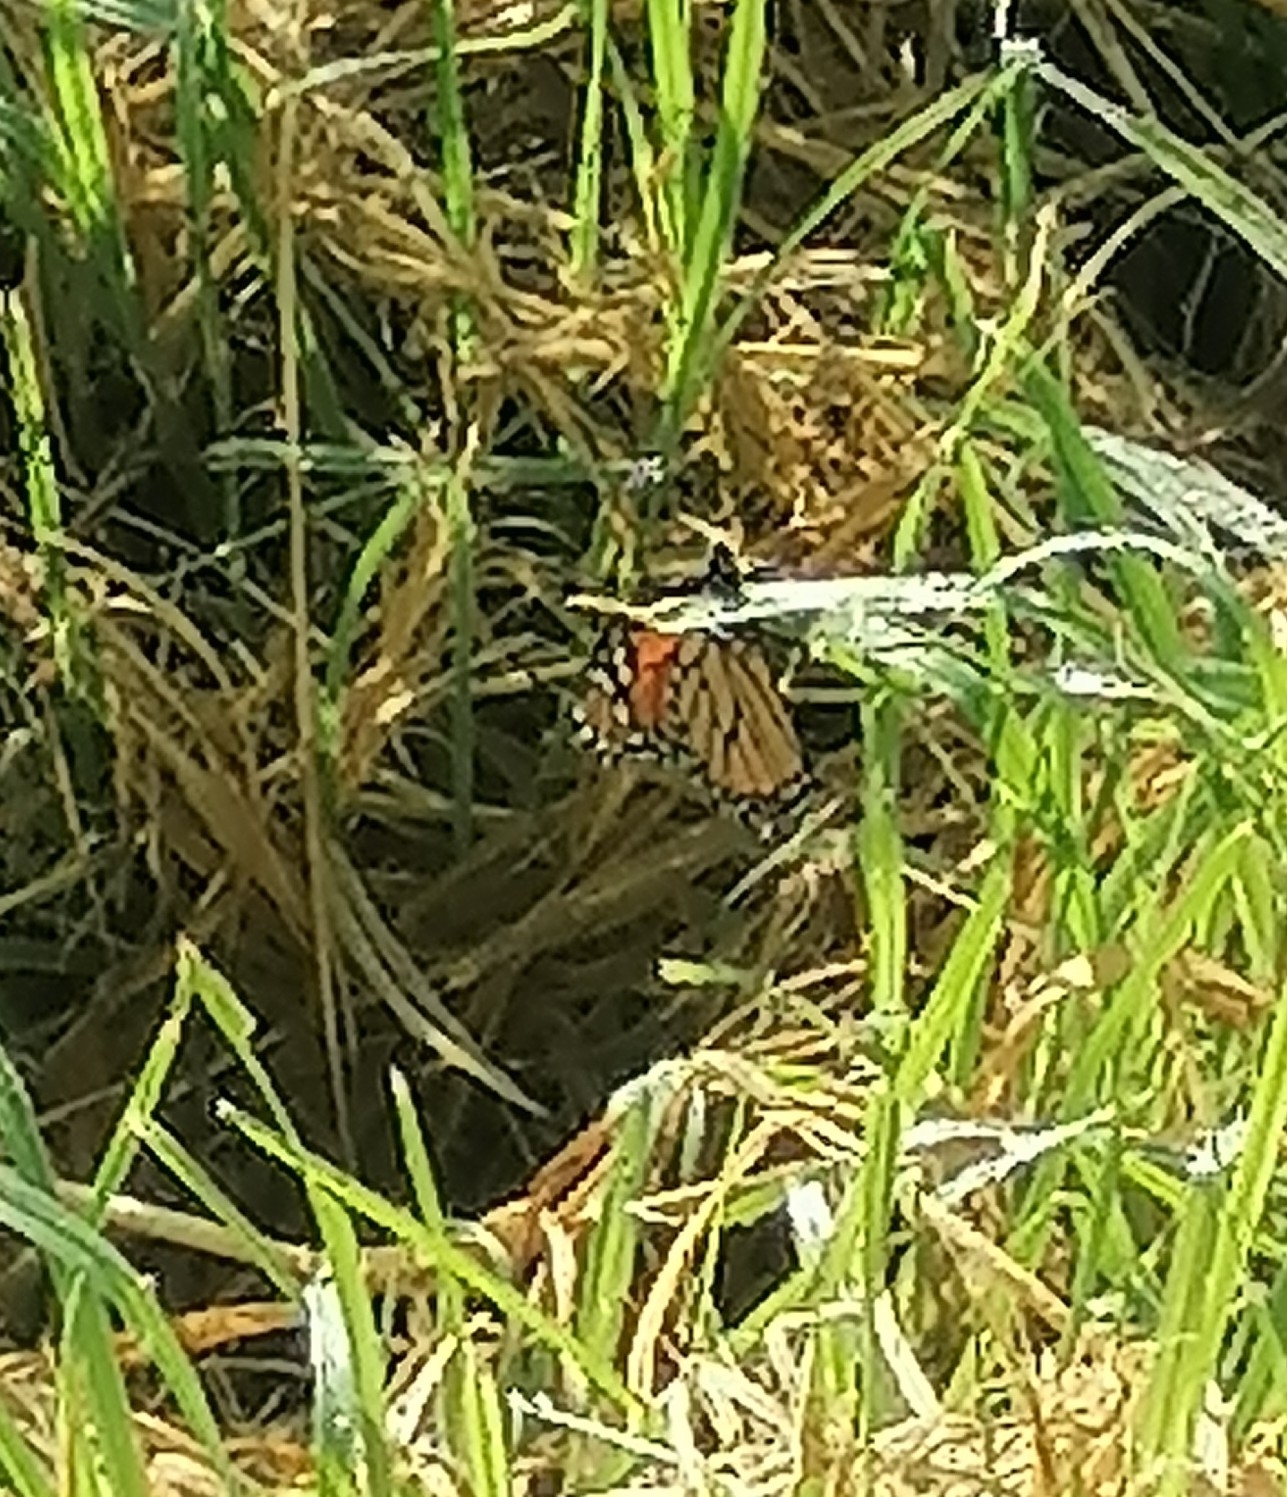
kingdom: Animalia
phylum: Arthropoda
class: Insecta
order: Lepidoptera
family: Nymphalidae
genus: Danaus
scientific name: Danaus plexippus
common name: Monarch
